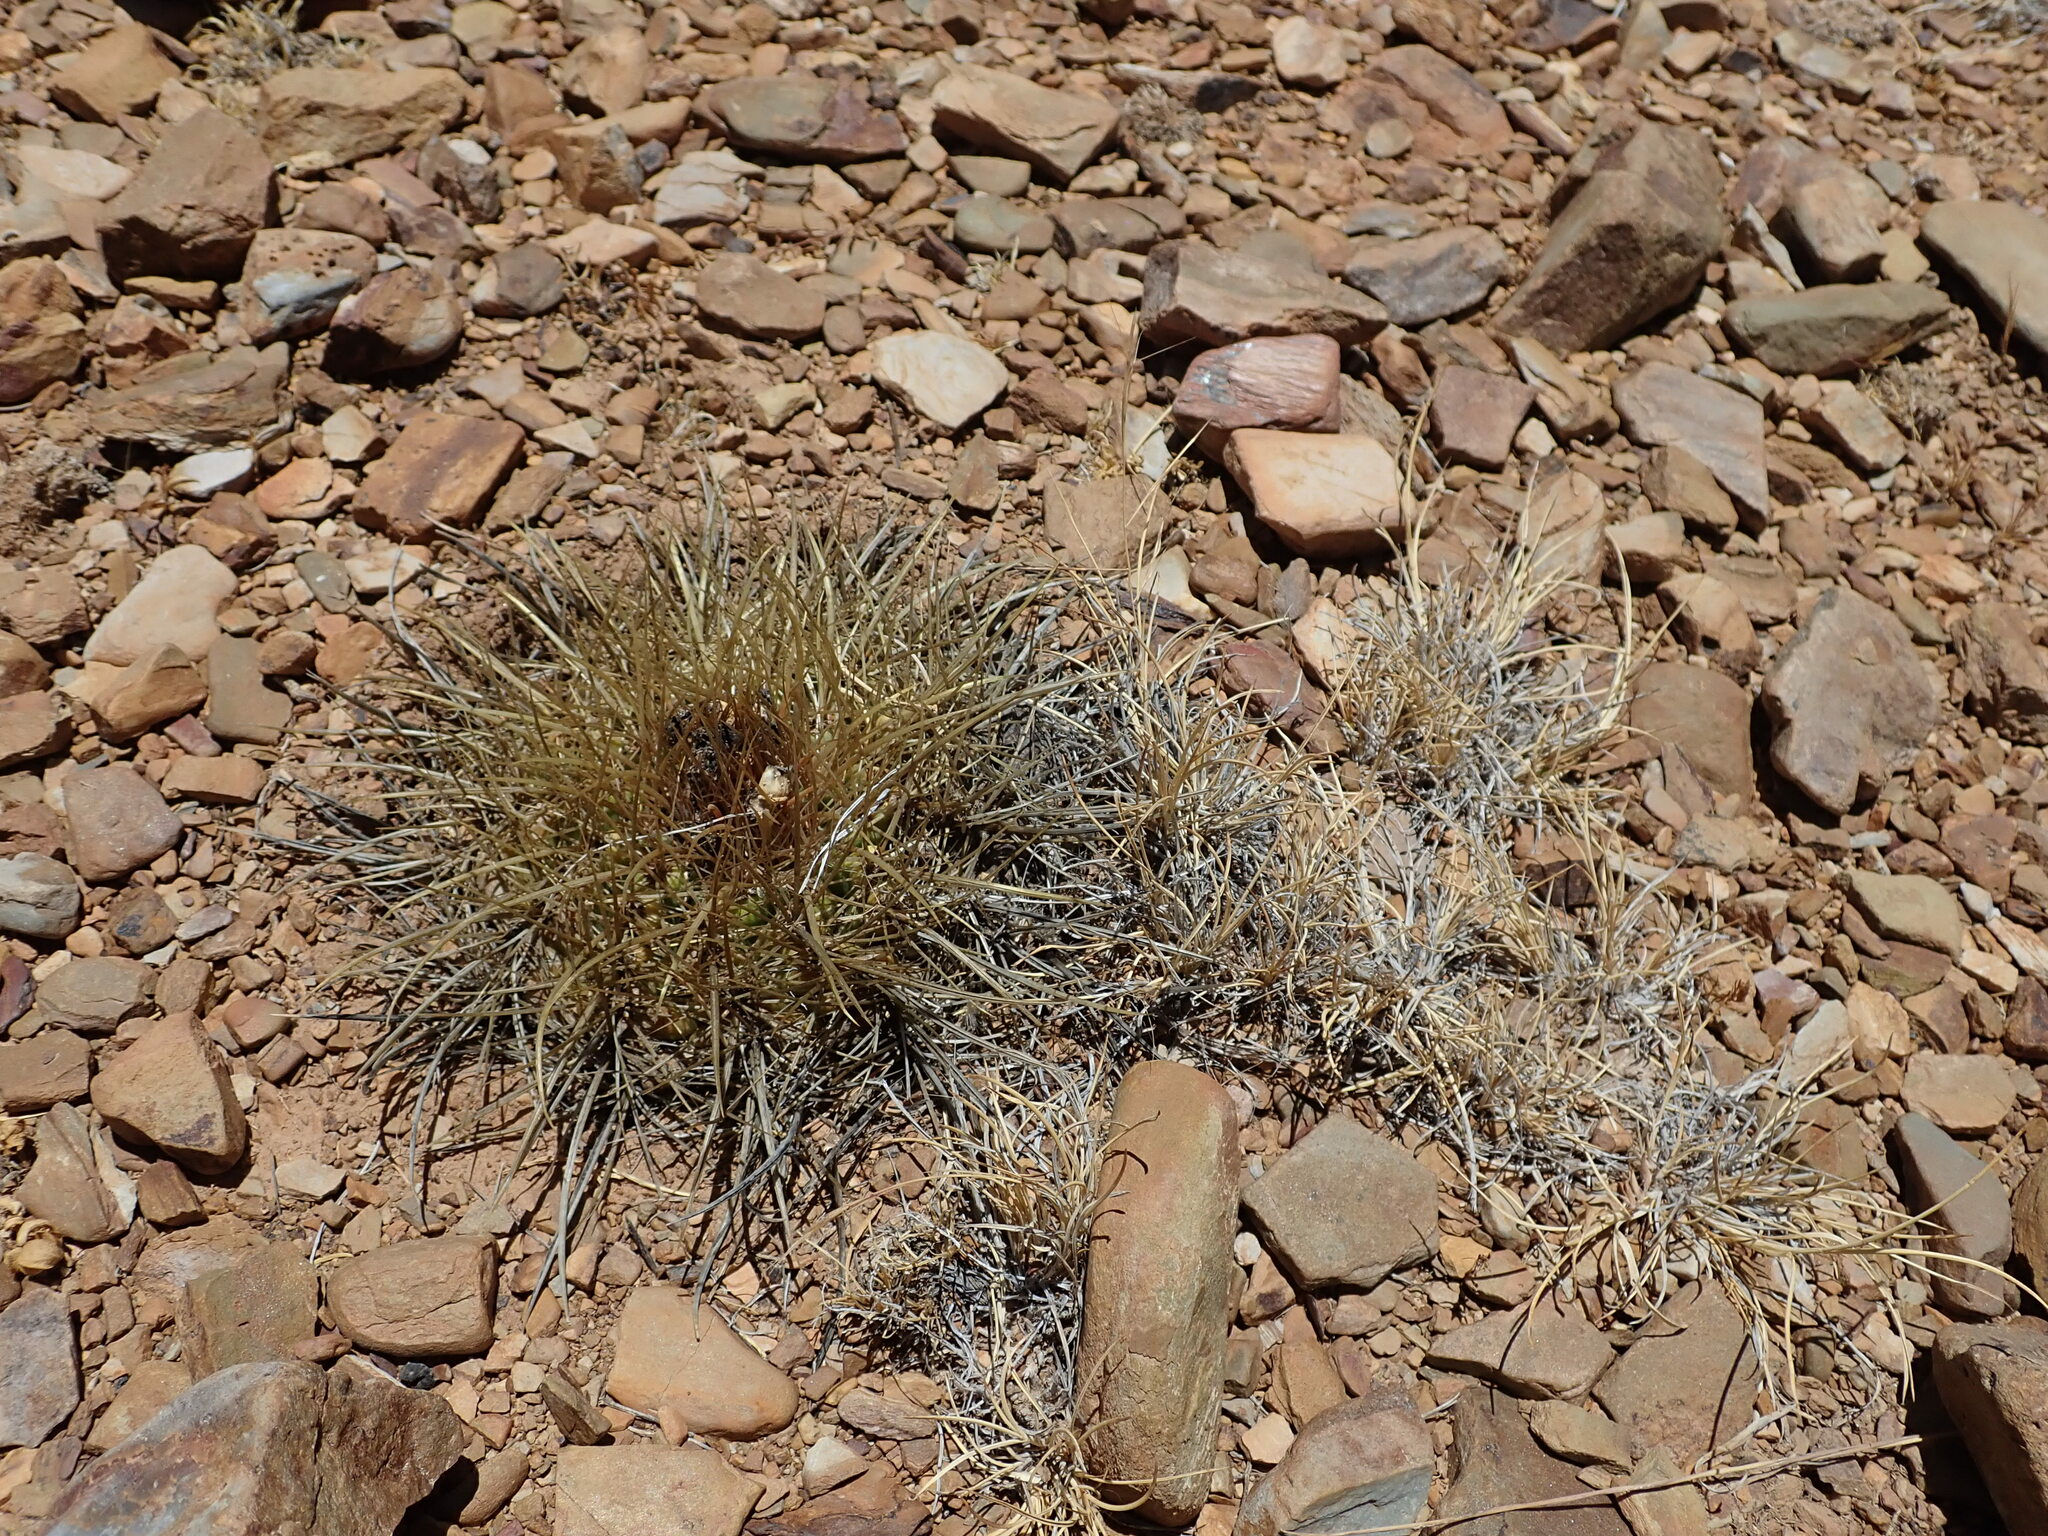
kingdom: Plantae
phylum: Tracheophyta
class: Magnoliopsida
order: Caryophyllales
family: Cactaceae
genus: Parodia
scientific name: Parodia maassii
